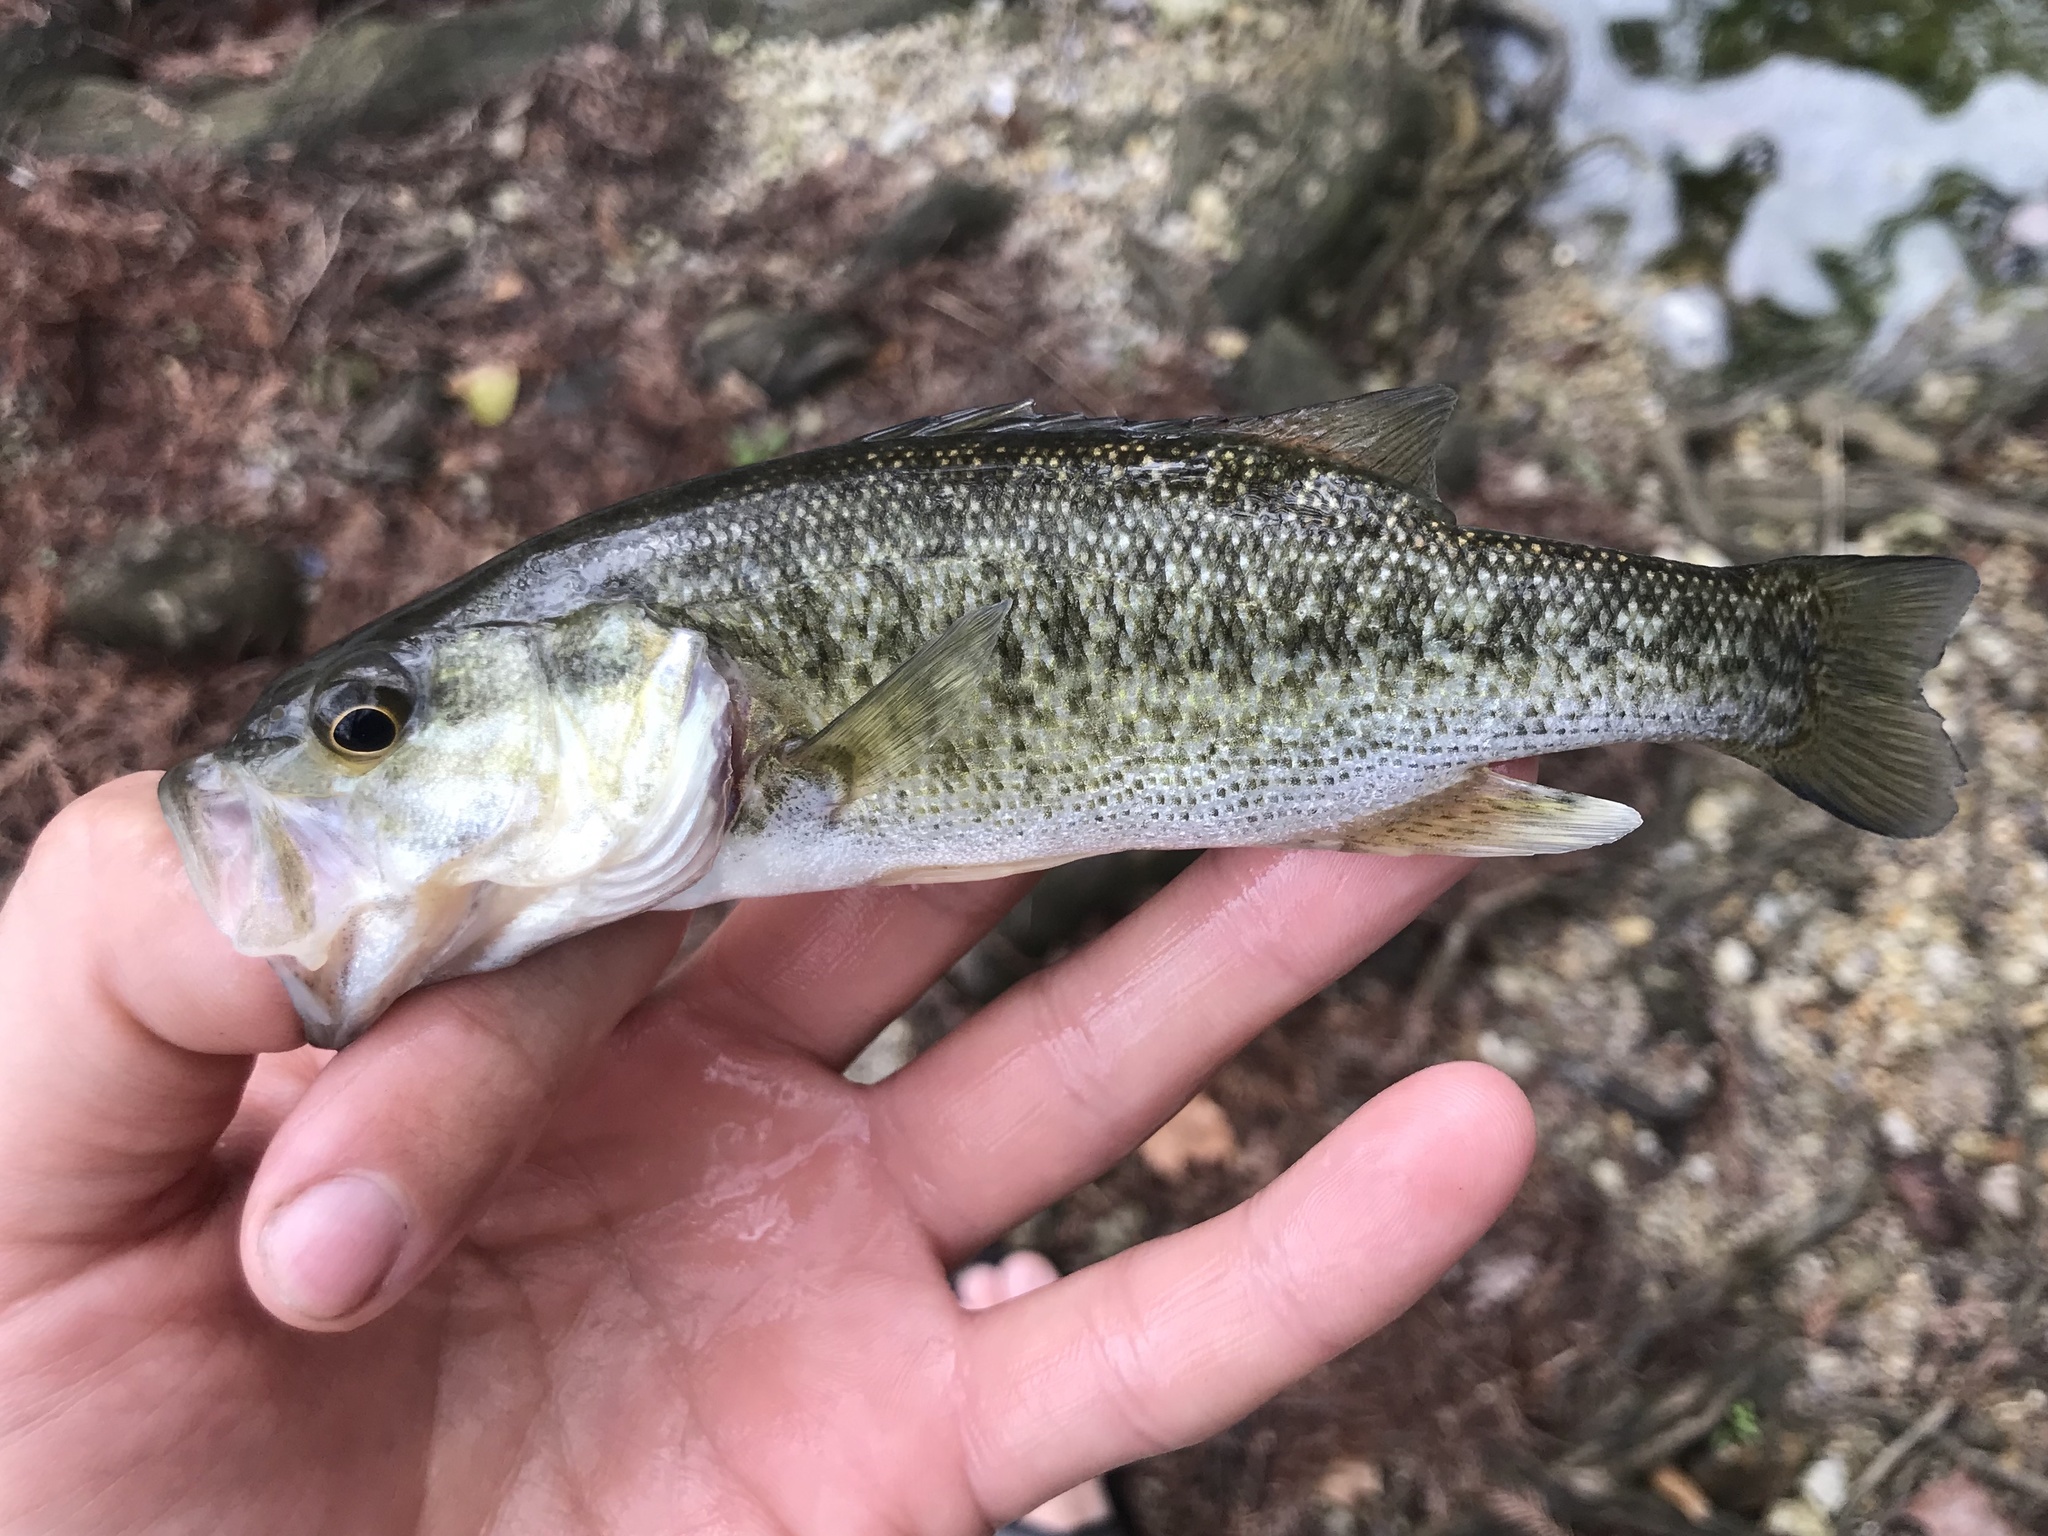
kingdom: Animalia
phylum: Chordata
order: Perciformes
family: Centrarchidae
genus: Micropterus
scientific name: Micropterus treculii
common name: Guadalupe bass
